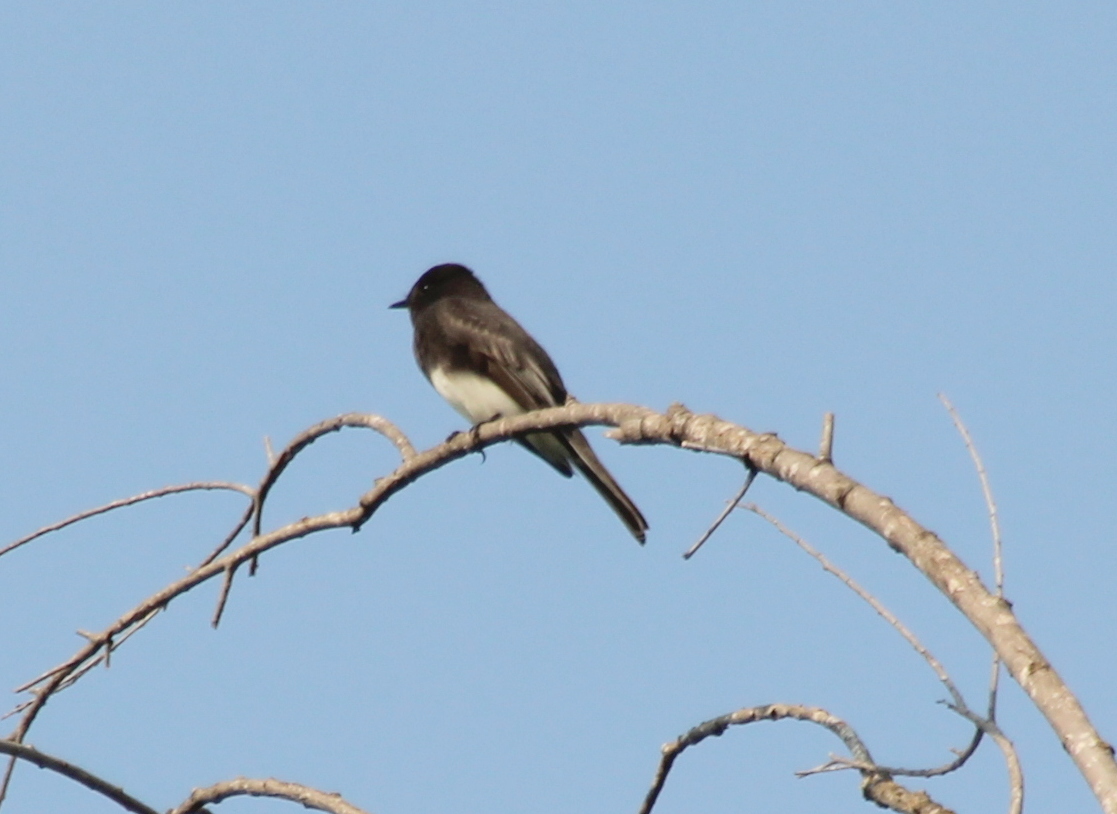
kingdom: Animalia
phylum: Chordata
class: Aves
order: Passeriformes
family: Tyrannidae
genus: Sayornis
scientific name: Sayornis nigricans
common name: Black phoebe
